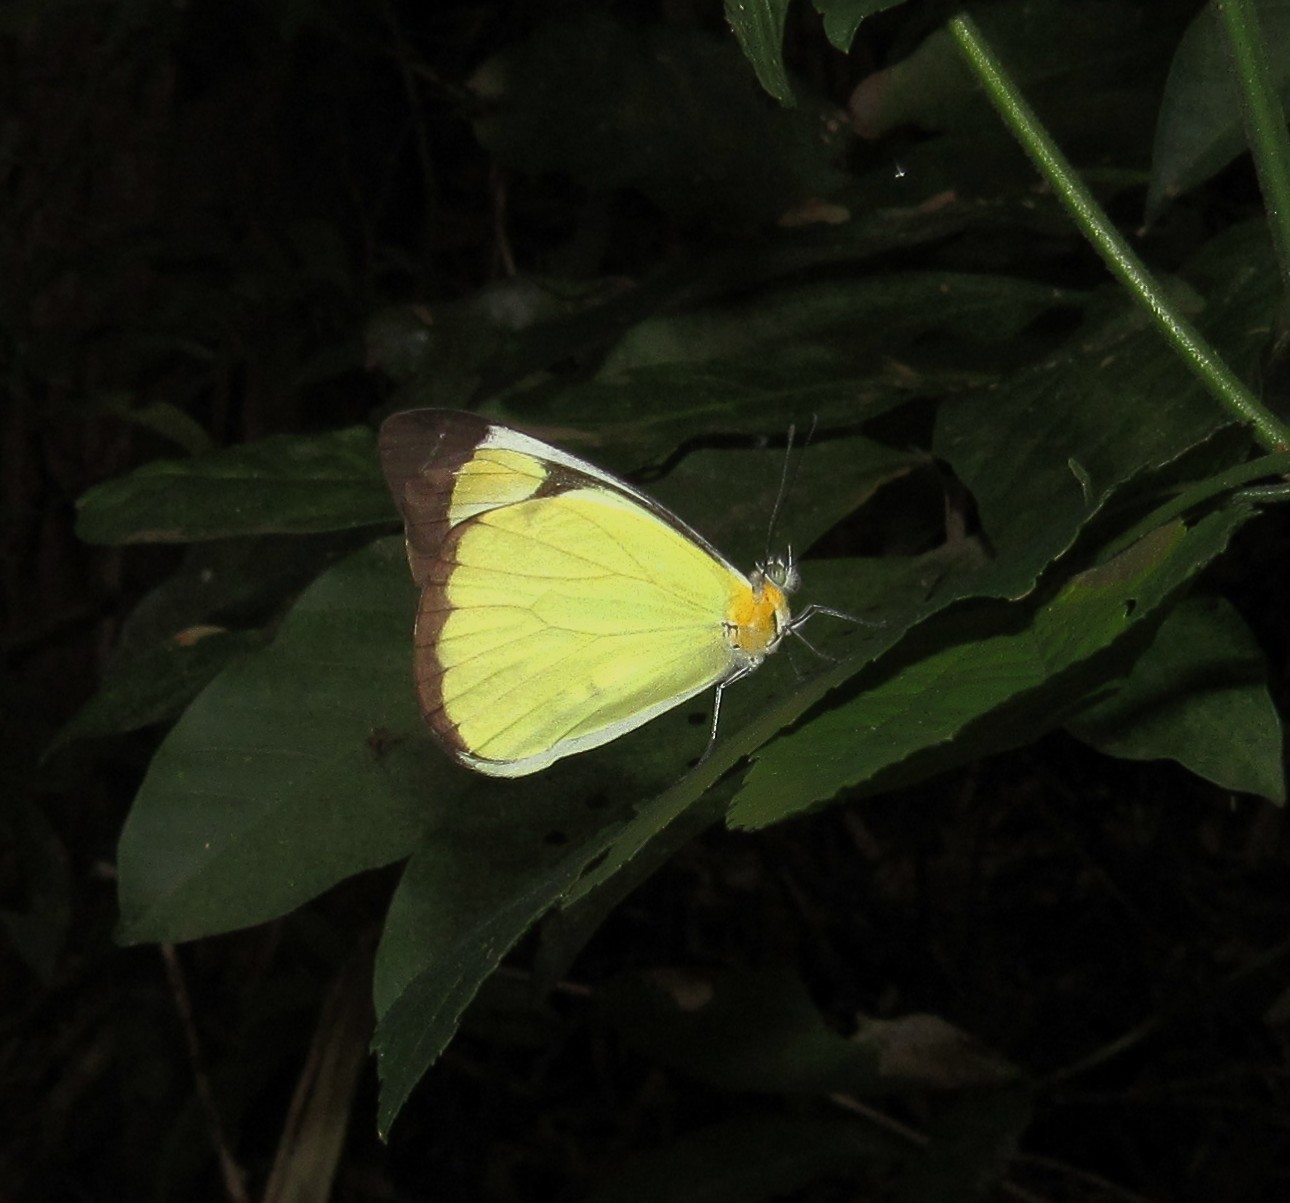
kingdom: Animalia
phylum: Arthropoda
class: Insecta
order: Lepidoptera
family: Pieridae
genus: Melete
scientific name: Melete lycimnia
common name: Common melwhite
